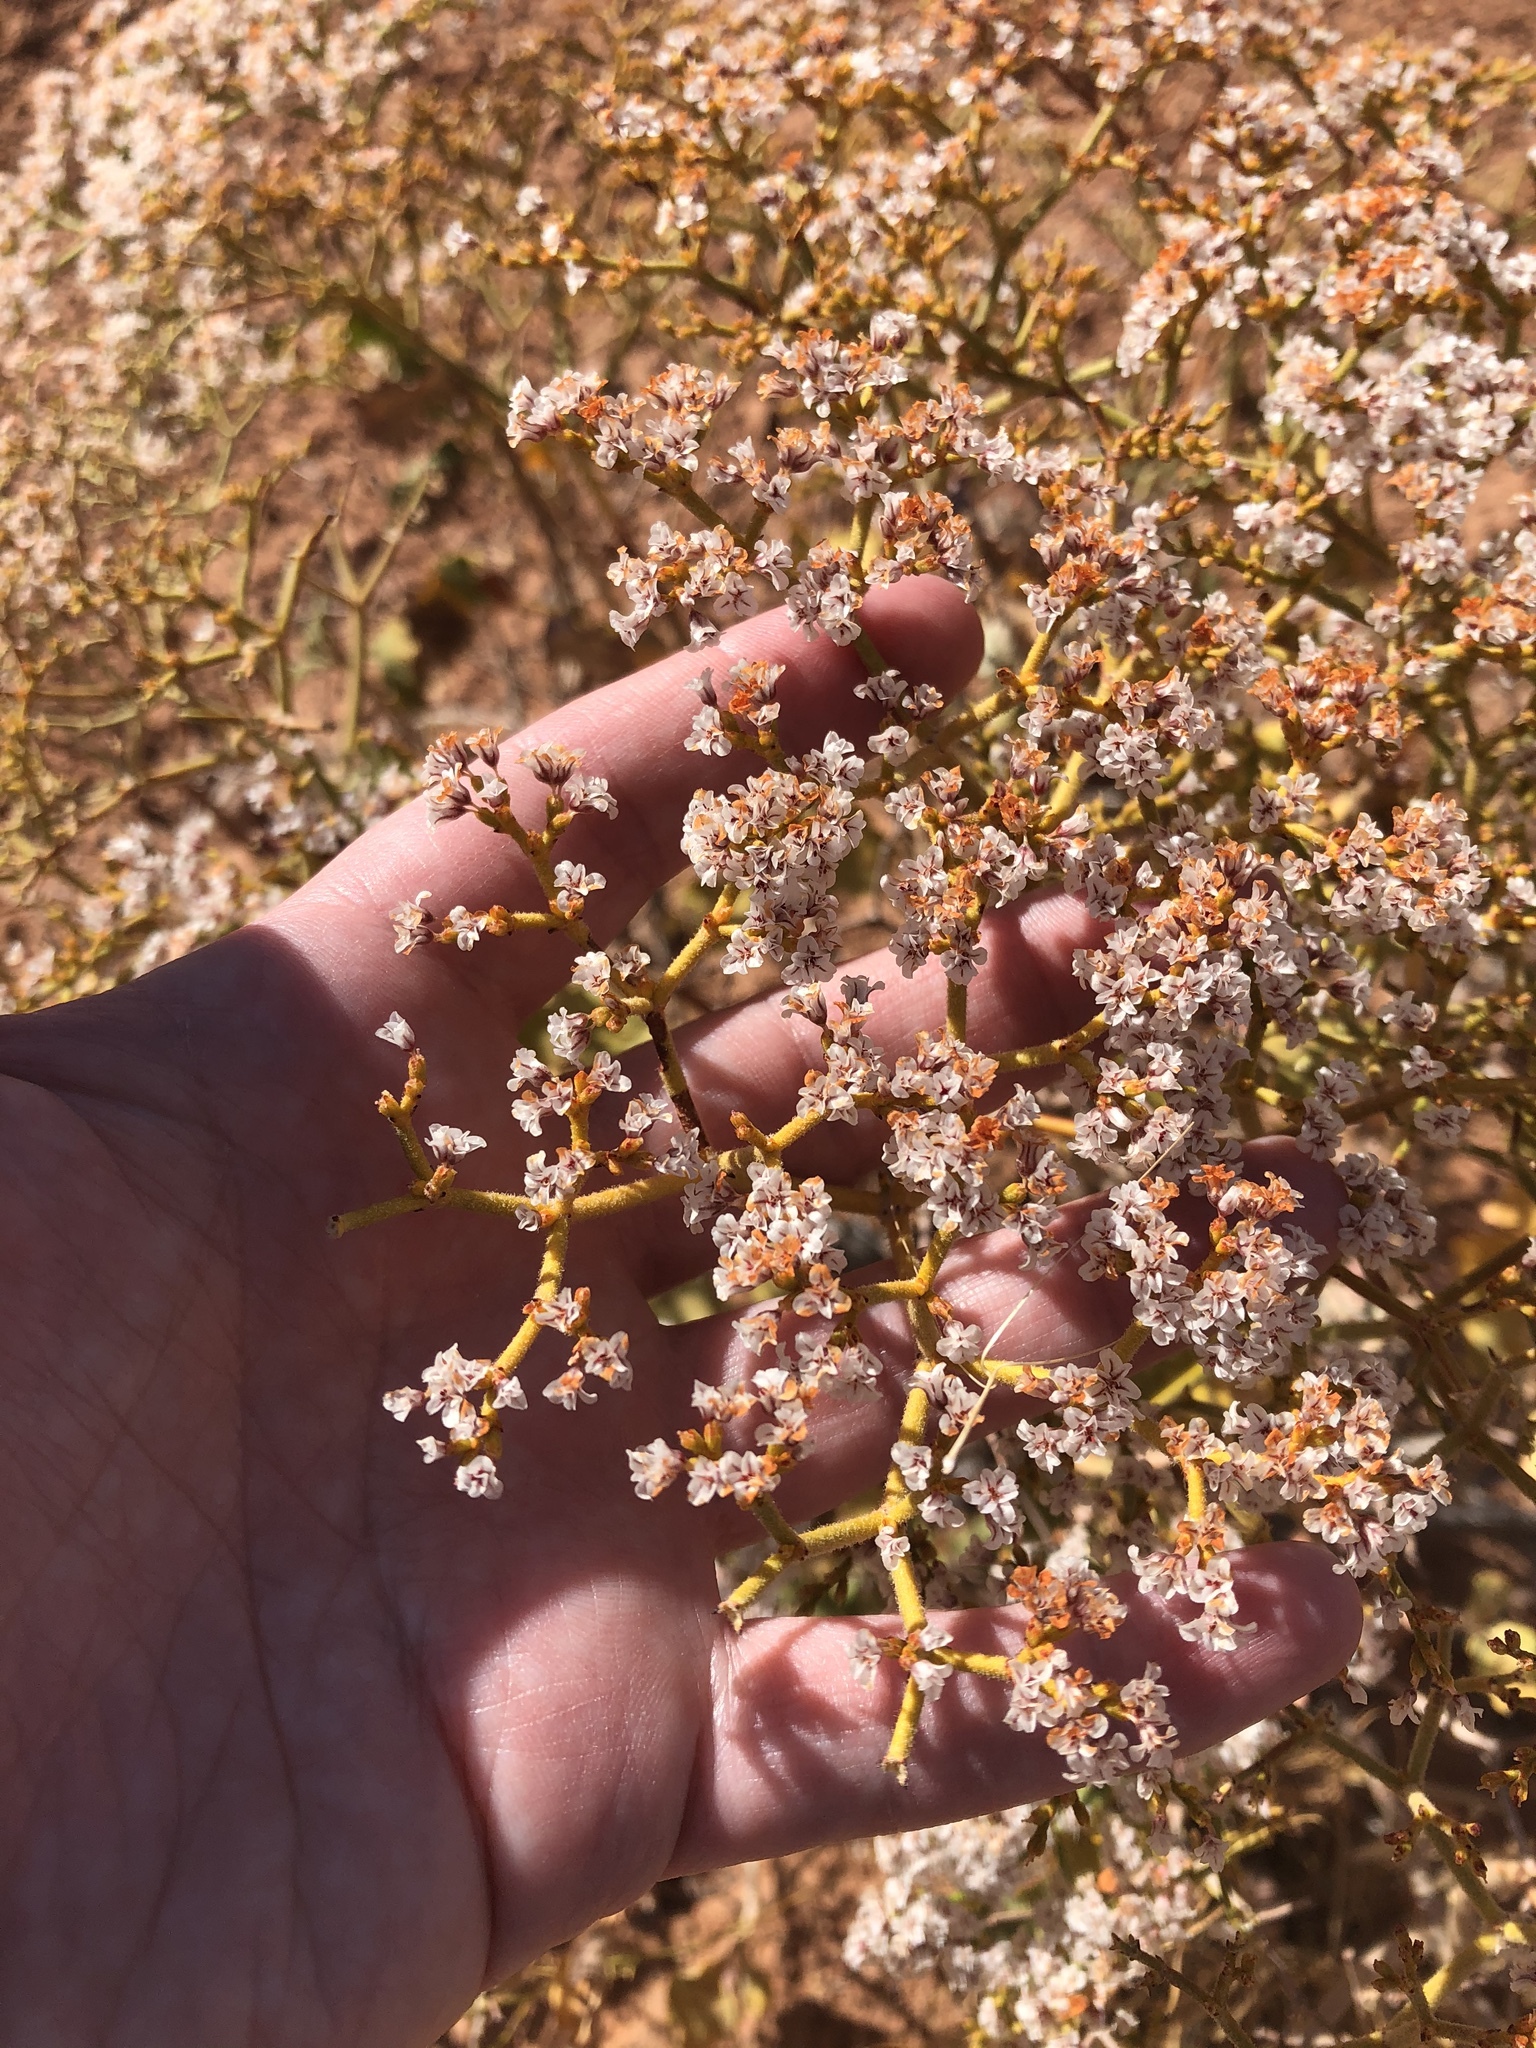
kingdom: Plantae
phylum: Tracheophyta
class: Magnoliopsida
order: Caryophyllales
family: Polygonaceae
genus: Eriogonum
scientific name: Eriogonum corymbosum
